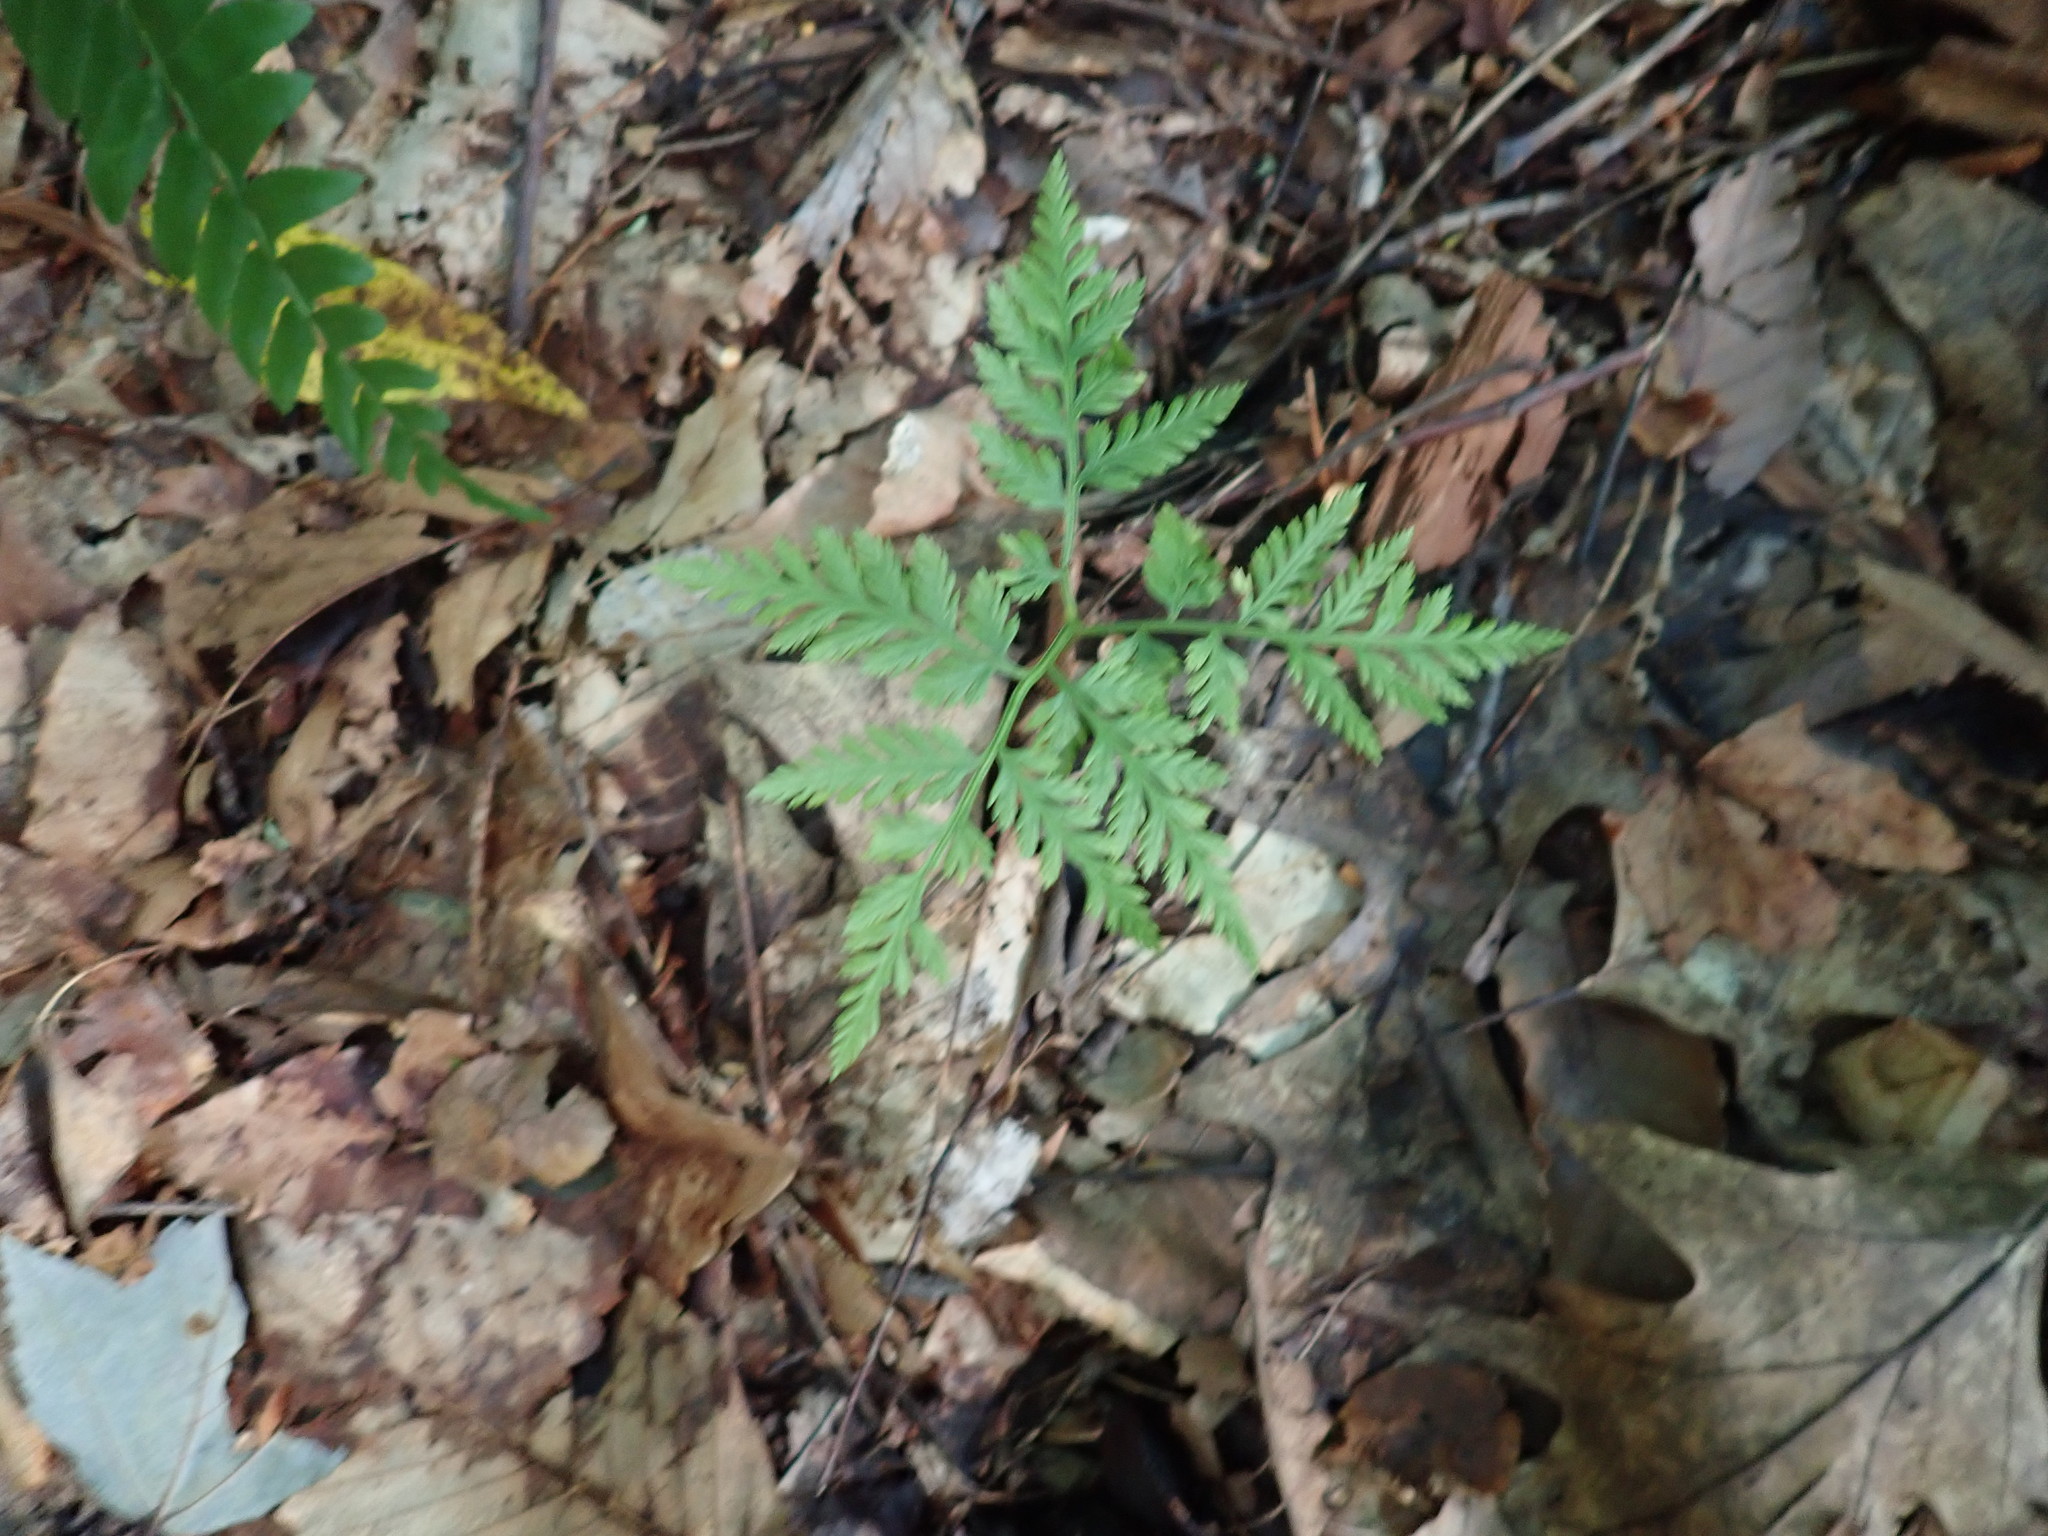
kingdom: Plantae
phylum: Tracheophyta
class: Polypodiopsida
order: Ophioglossales
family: Ophioglossaceae
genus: Botrypus
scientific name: Botrypus virginianus
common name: Common grapefern
